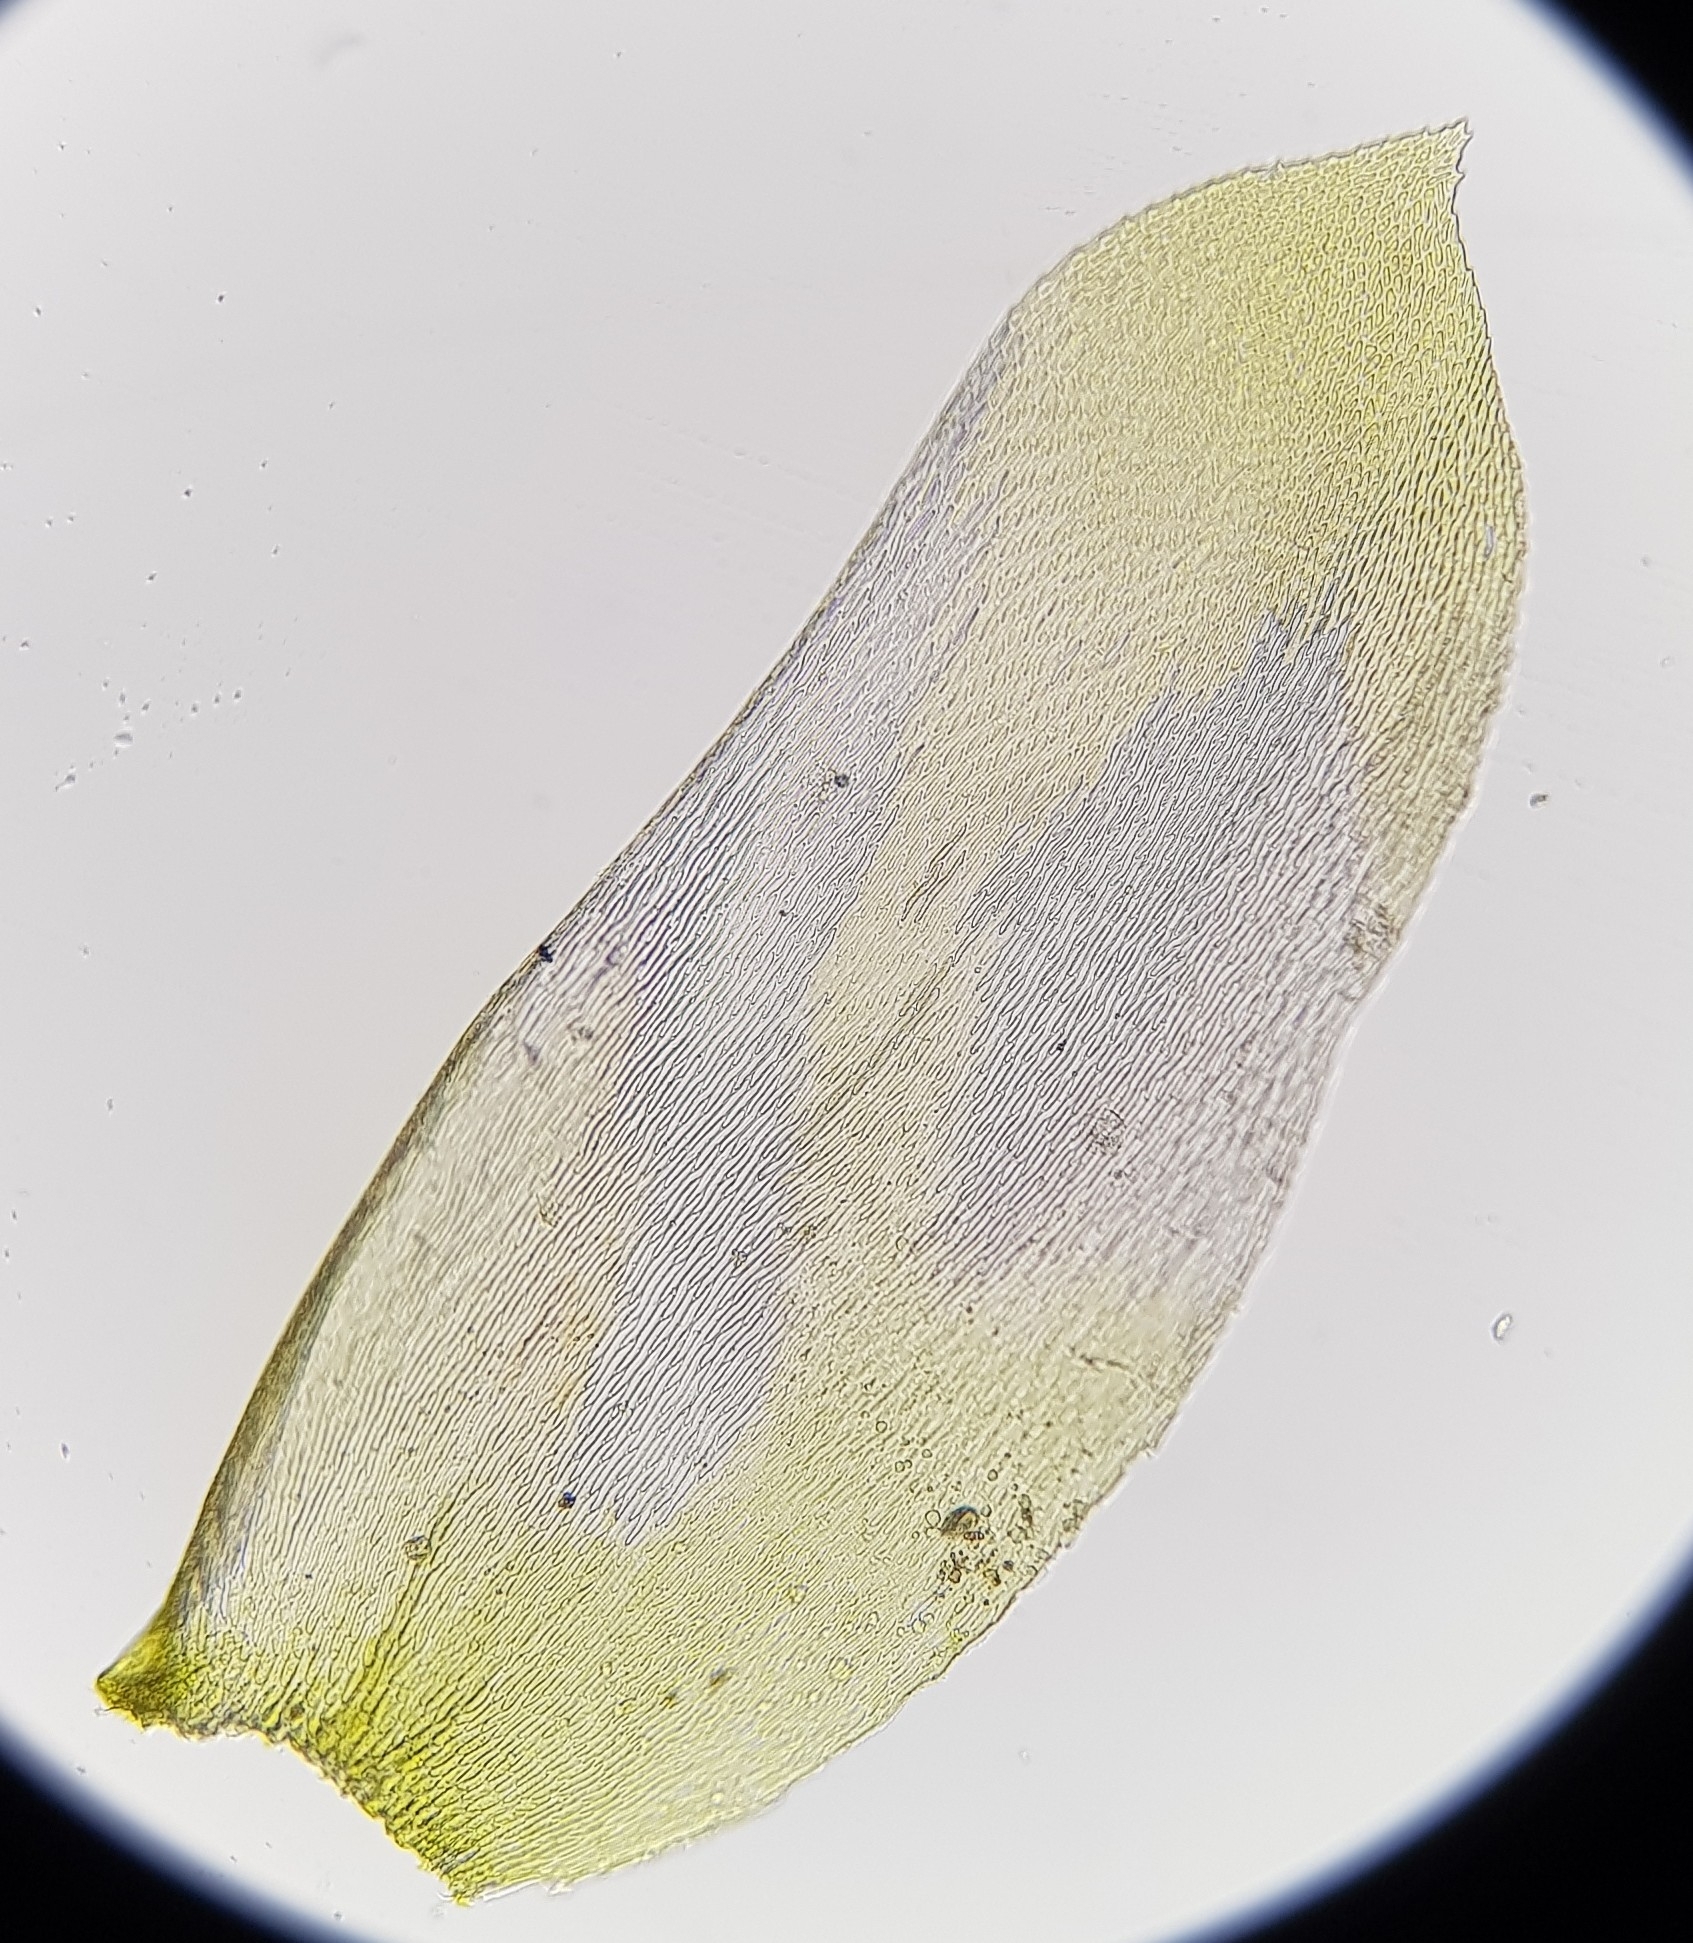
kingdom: Plantae
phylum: Bryophyta
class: Bryopsida
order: Hypnales
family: Neckeraceae
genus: Alleniella
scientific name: Alleniella complanata
